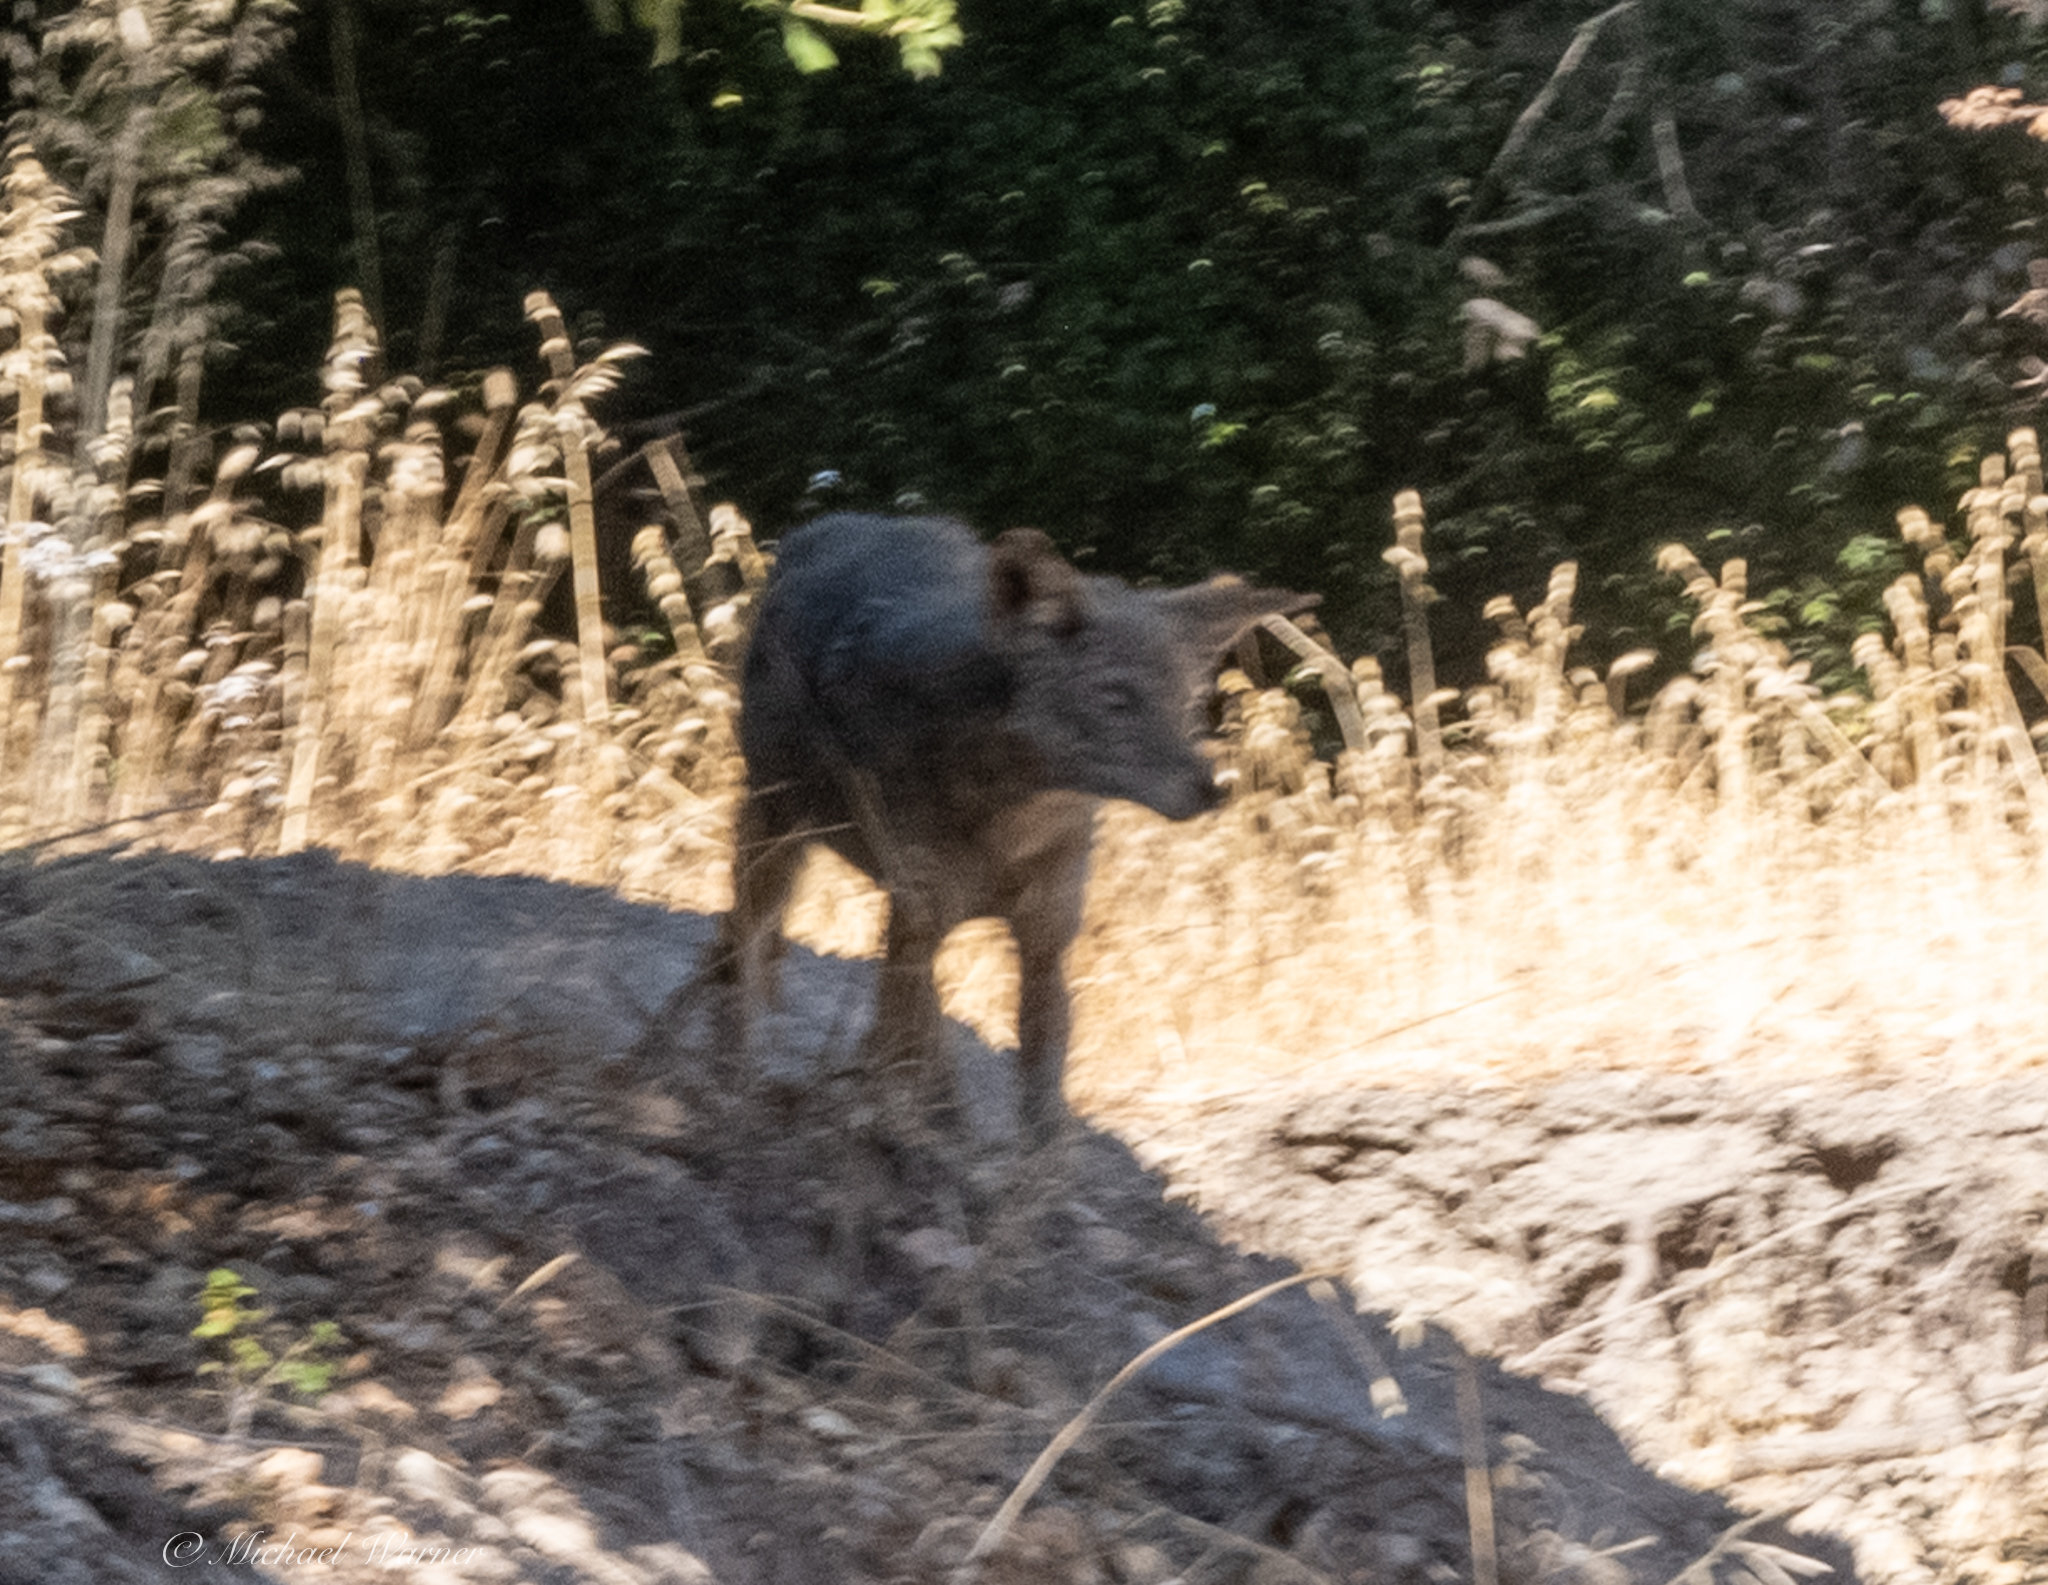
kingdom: Animalia
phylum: Chordata
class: Mammalia
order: Carnivora
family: Canidae
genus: Canis
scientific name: Canis latrans
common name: Coyote
